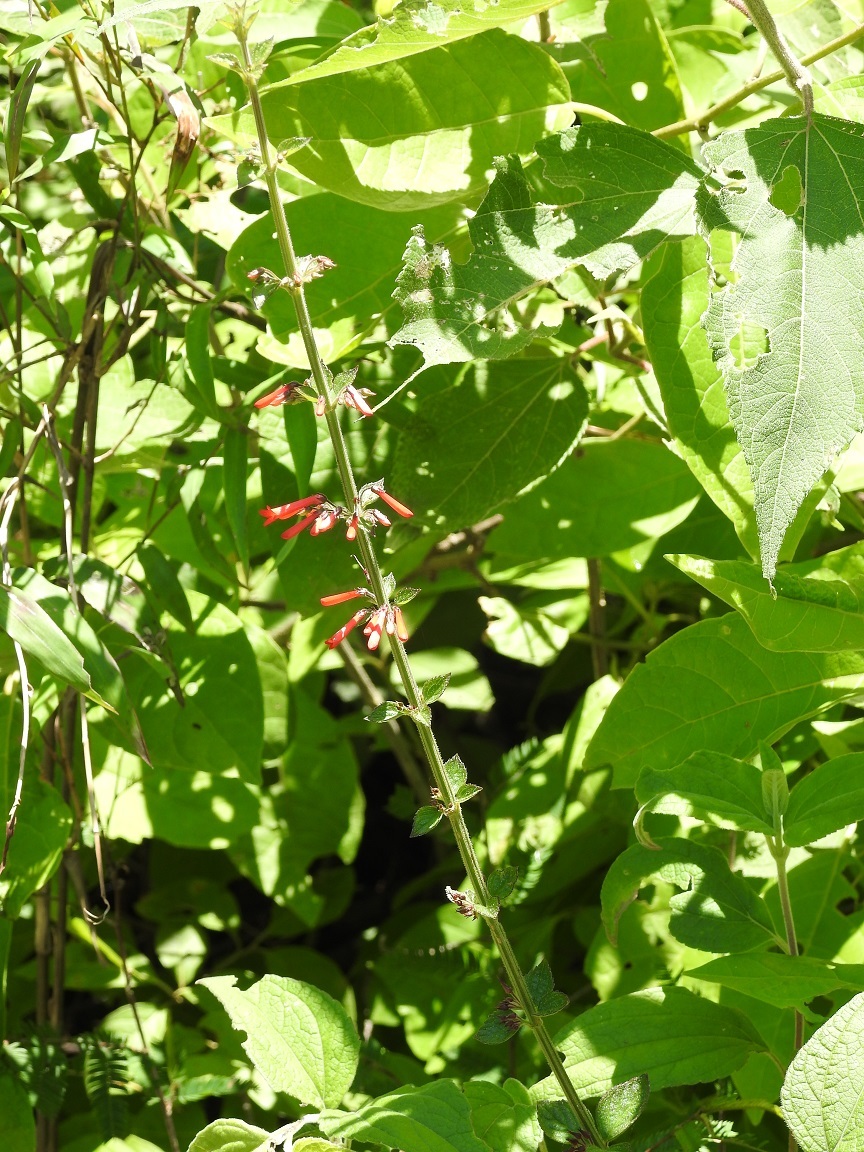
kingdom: Plantae
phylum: Tracheophyta
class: Magnoliopsida
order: Lamiales
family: Plantaginaceae
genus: Russelia
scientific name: Russelia verticillata
